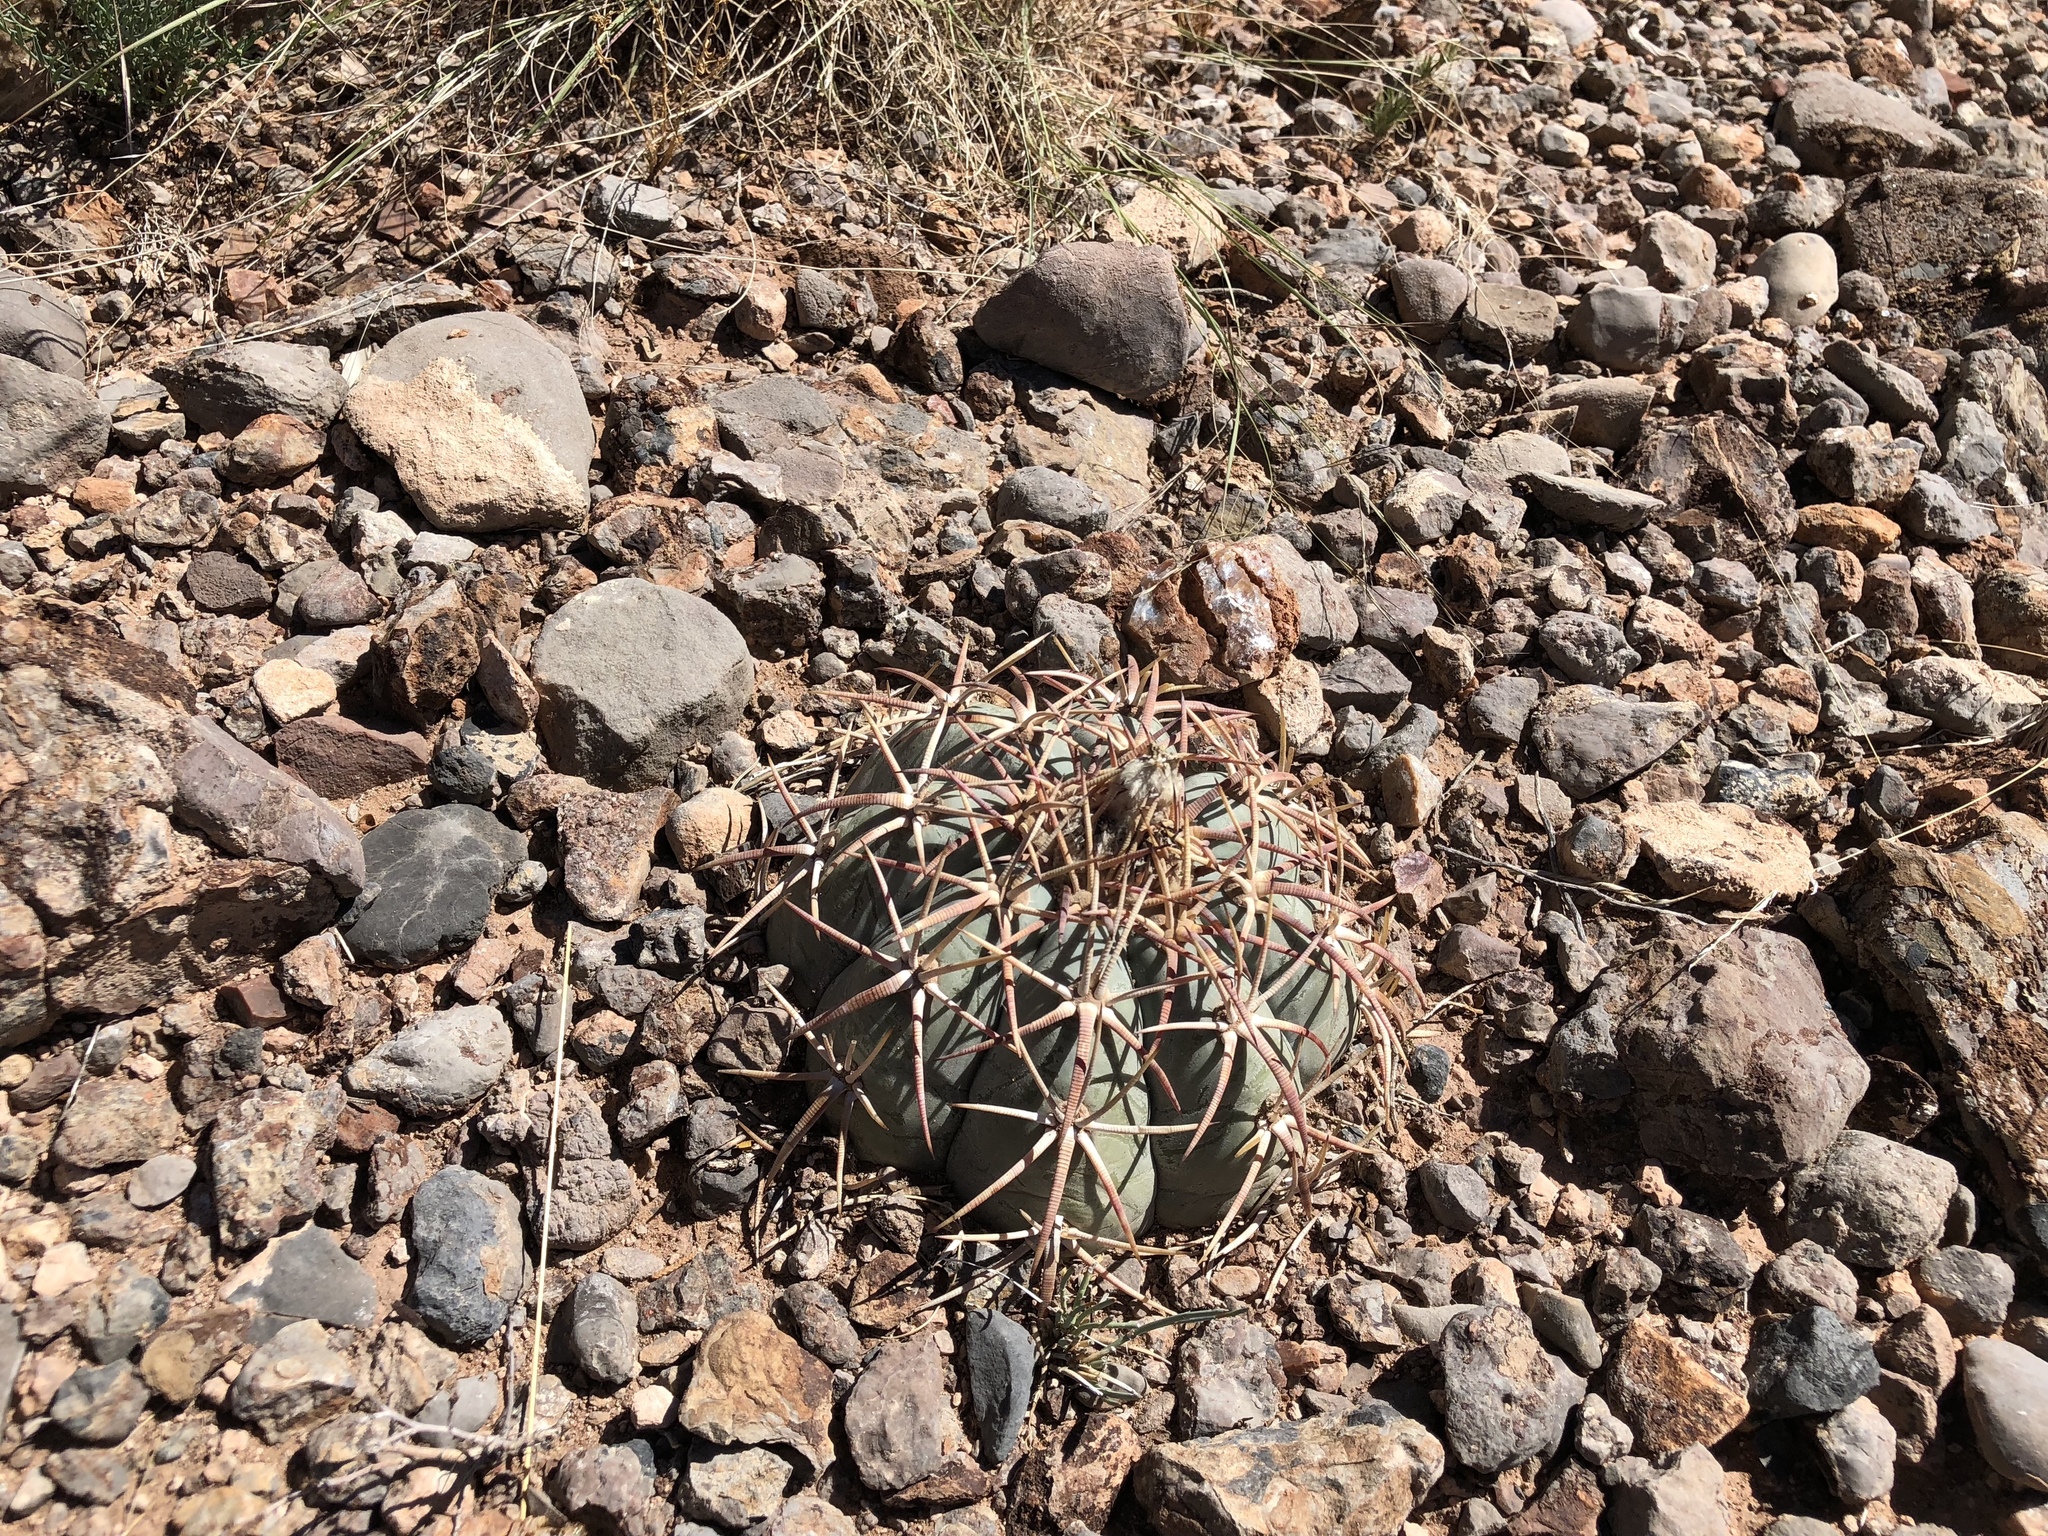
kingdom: Plantae
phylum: Tracheophyta
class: Magnoliopsida
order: Caryophyllales
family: Cactaceae
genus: Echinocactus
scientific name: Echinocactus horizonthalonius
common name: Devilshead
